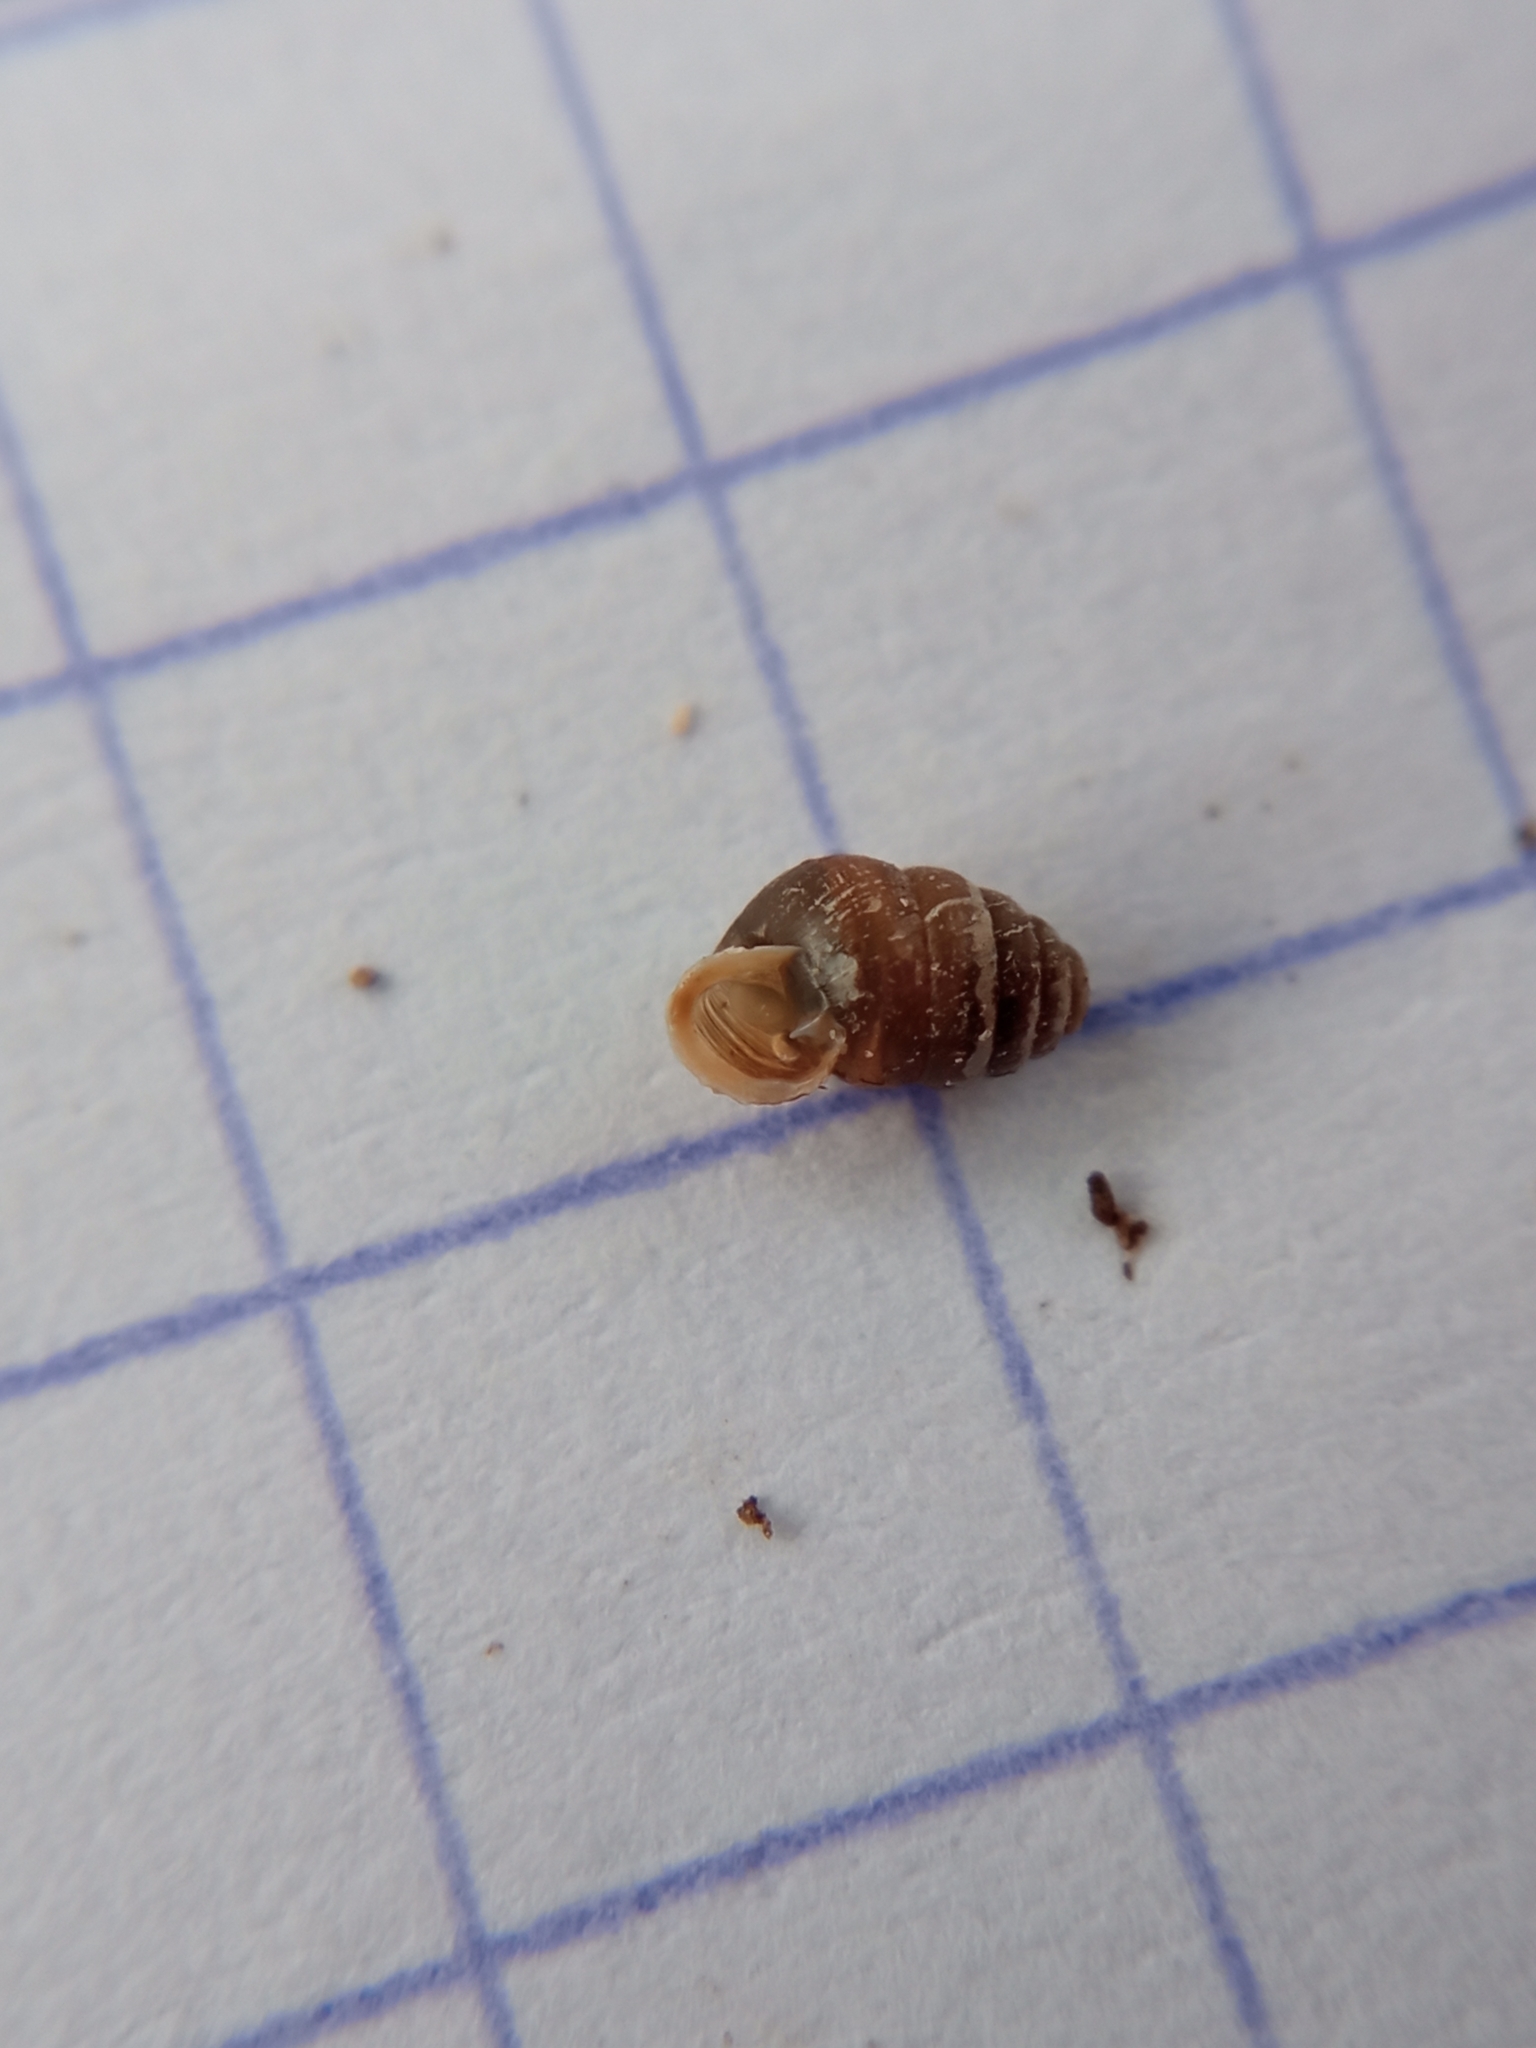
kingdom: Animalia
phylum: Mollusca
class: Gastropoda
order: Stylommatophora
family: Lauriidae
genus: Lauria
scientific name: Lauria cylindracea
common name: Common chrysalis snail
